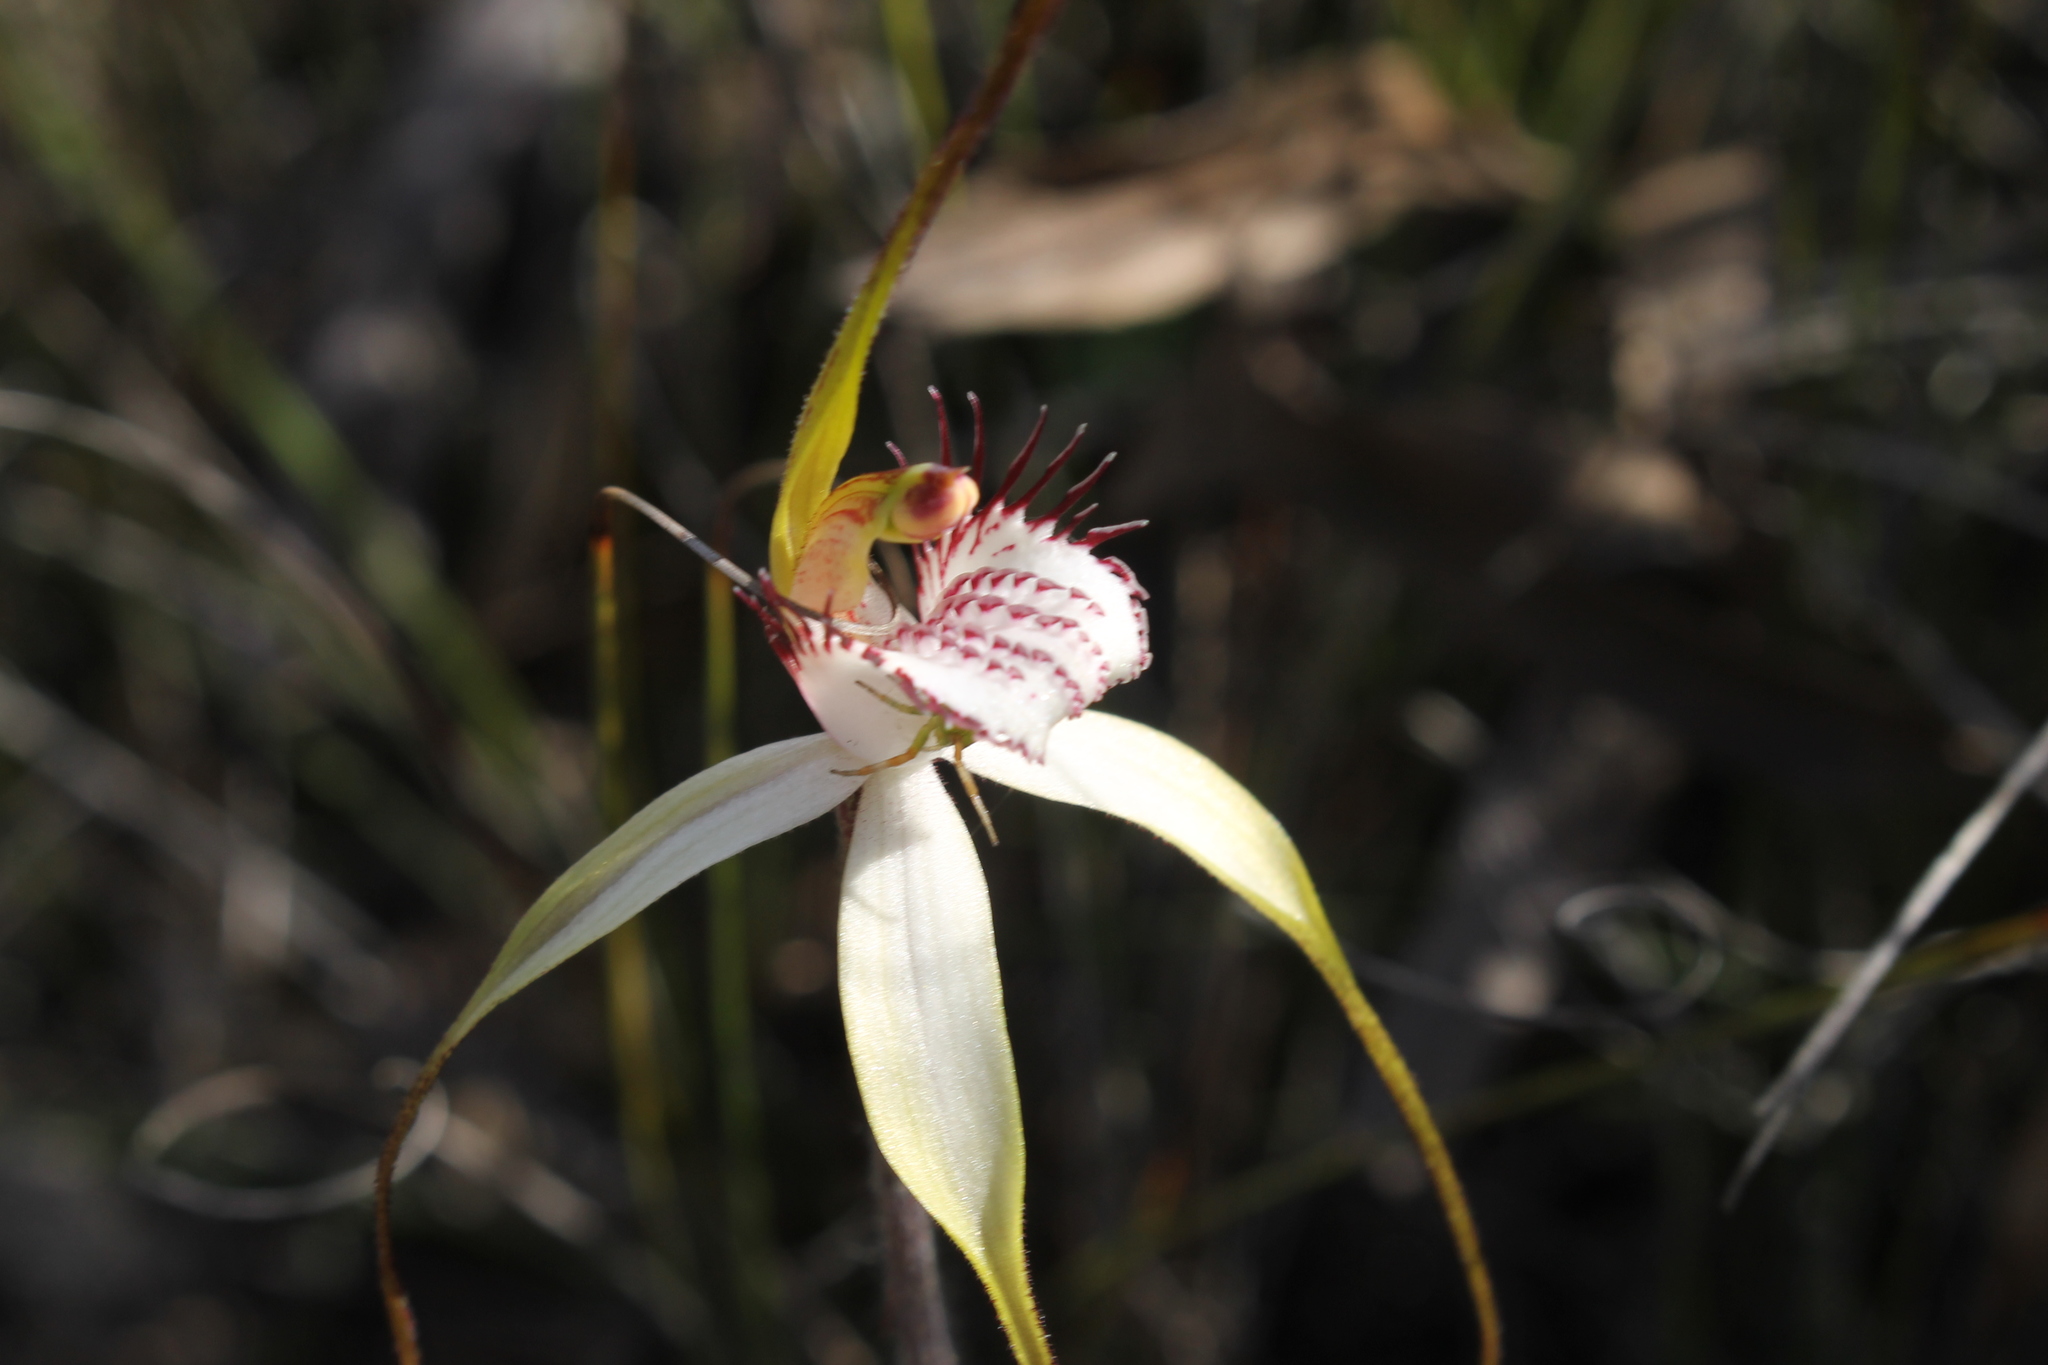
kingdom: Plantae
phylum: Tracheophyta
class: Liliopsida
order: Asparagales
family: Orchidaceae
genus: Caladenia
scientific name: Caladenia longicauda
